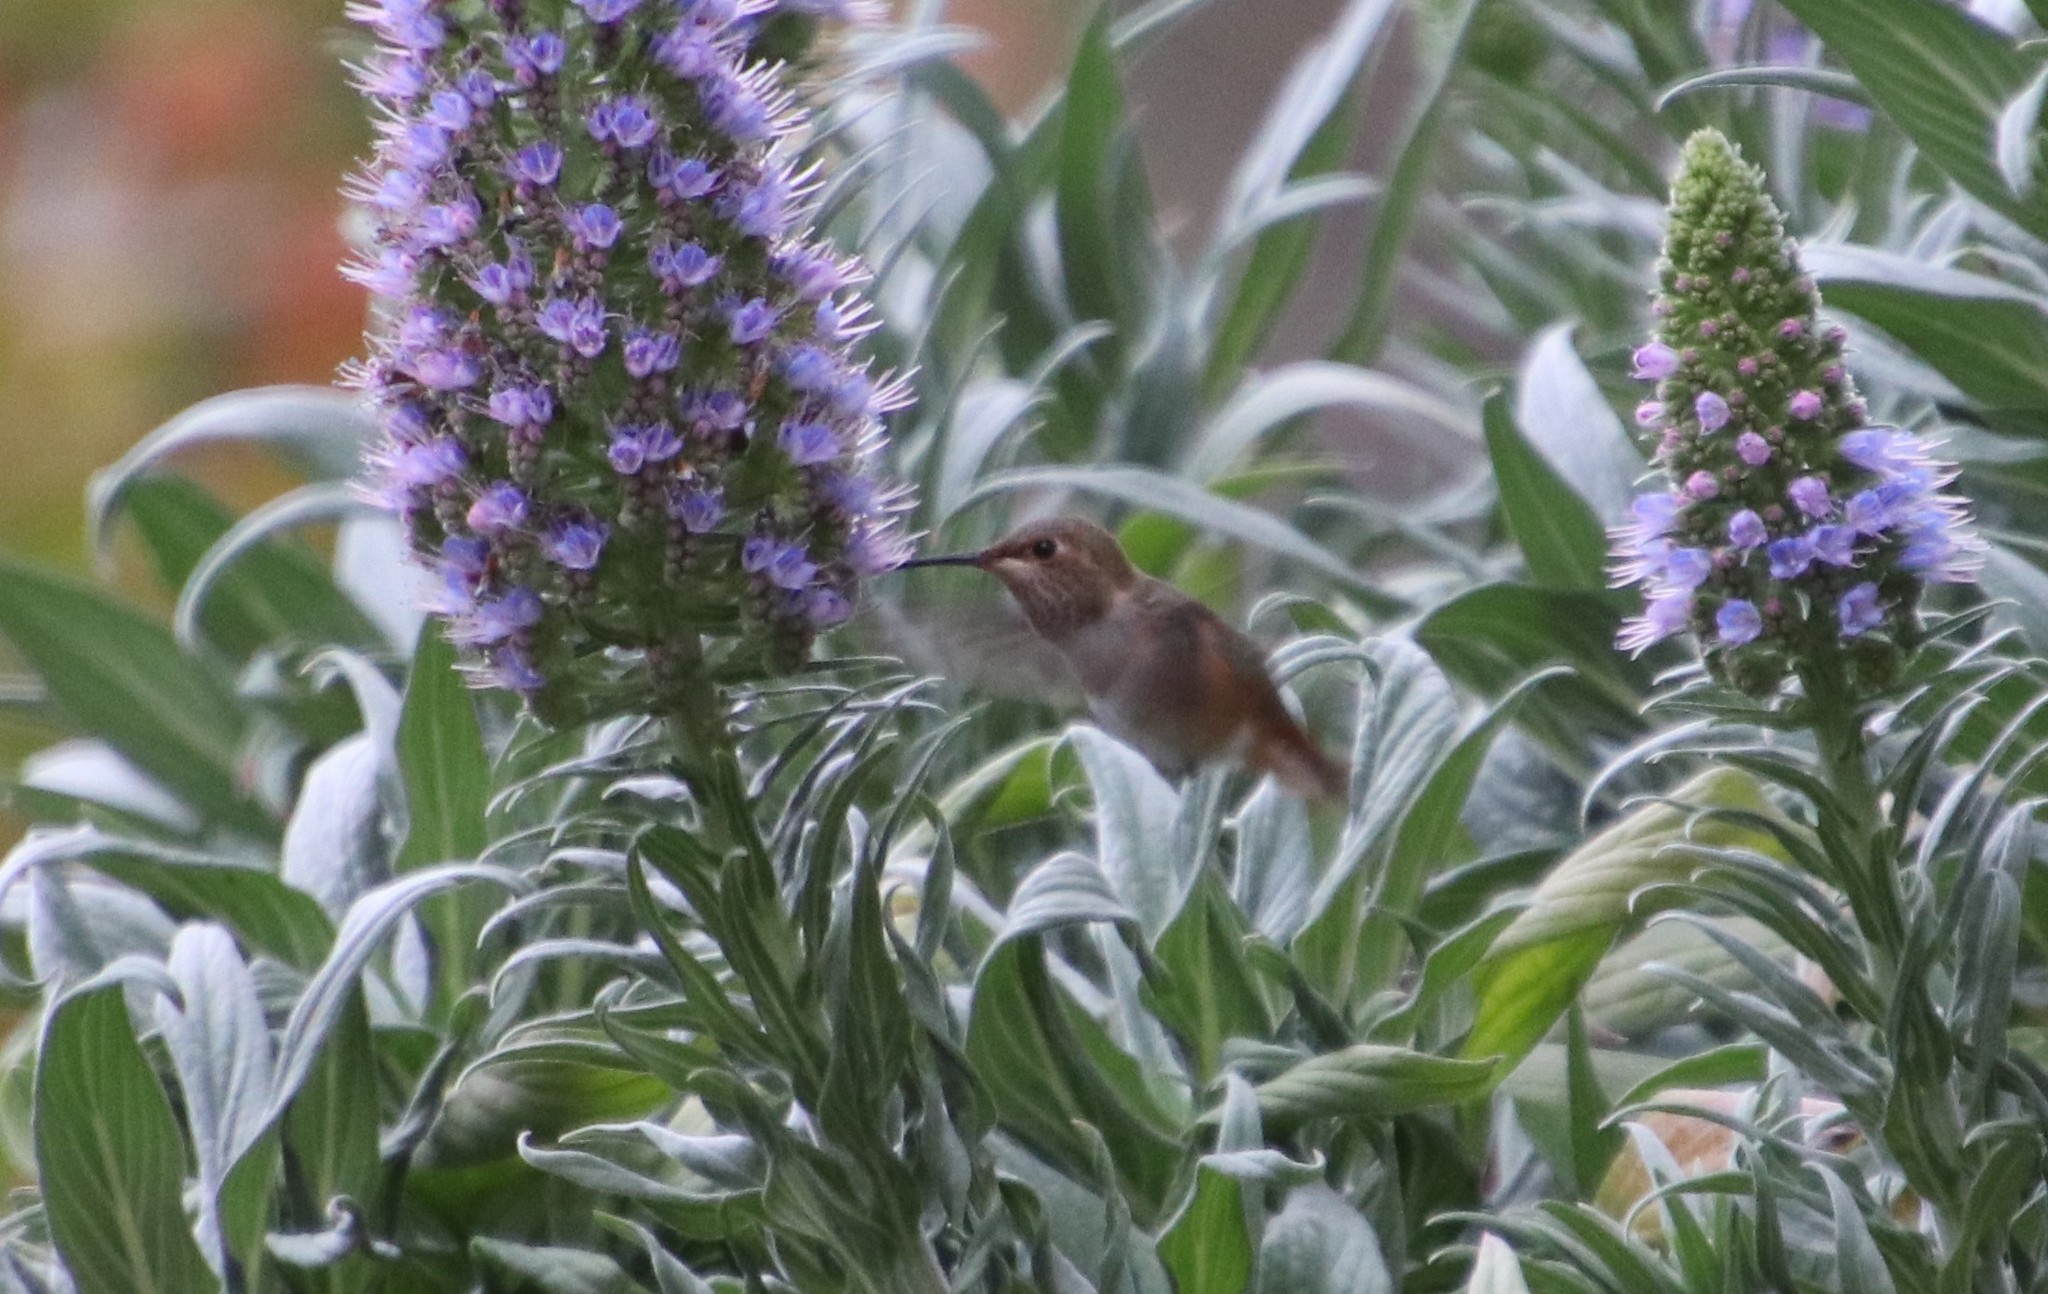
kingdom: Animalia
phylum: Chordata
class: Aves
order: Apodiformes
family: Trochilidae
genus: Selasphorus
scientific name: Selasphorus sasin
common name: Allen's hummingbird
